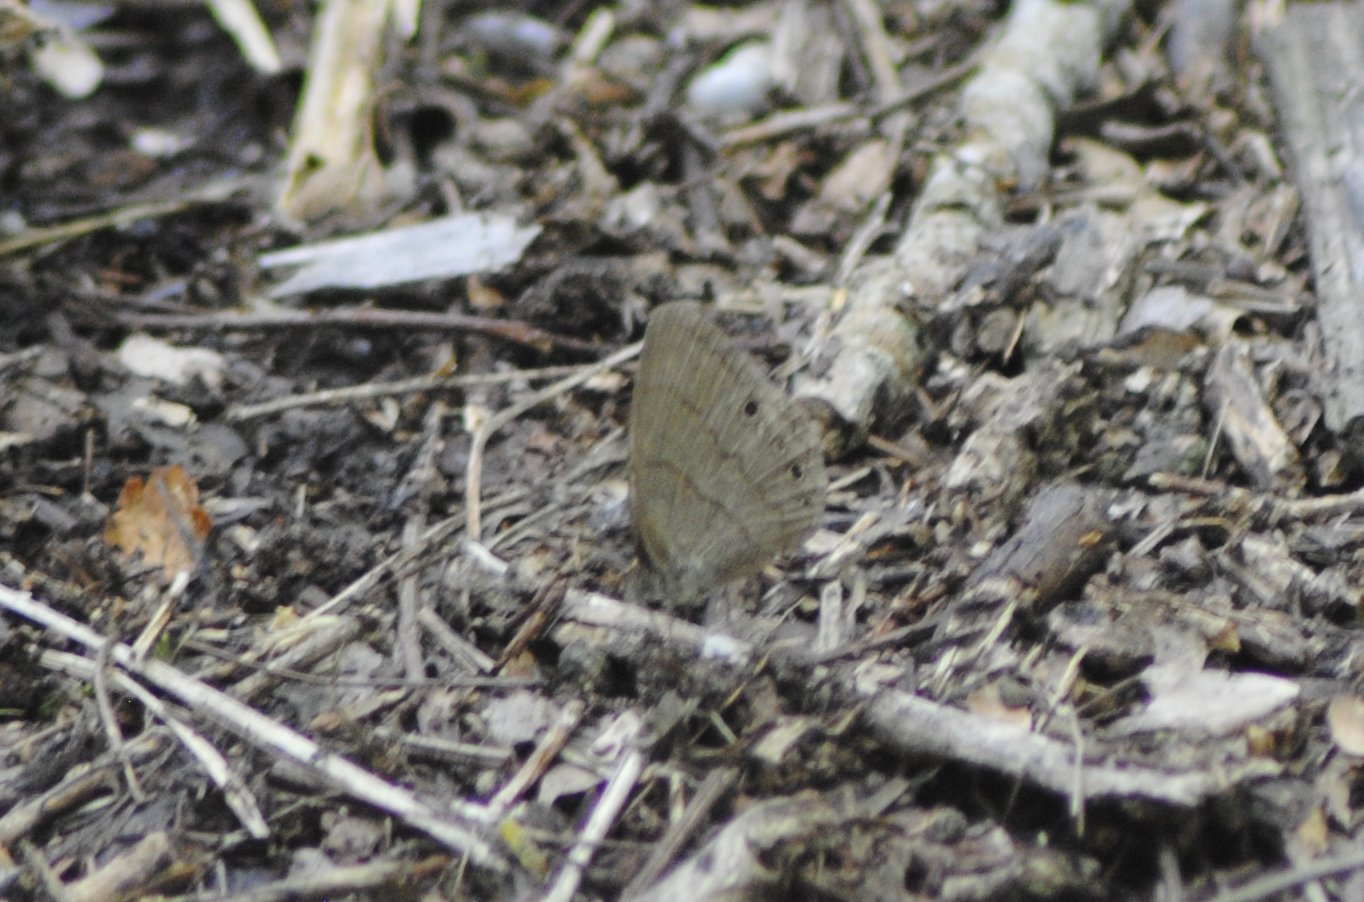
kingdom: Animalia
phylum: Arthropoda
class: Insecta
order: Lepidoptera
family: Nymphalidae
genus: Hermeuptychia
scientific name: Hermeuptychia hermybius
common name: South texas satyr
